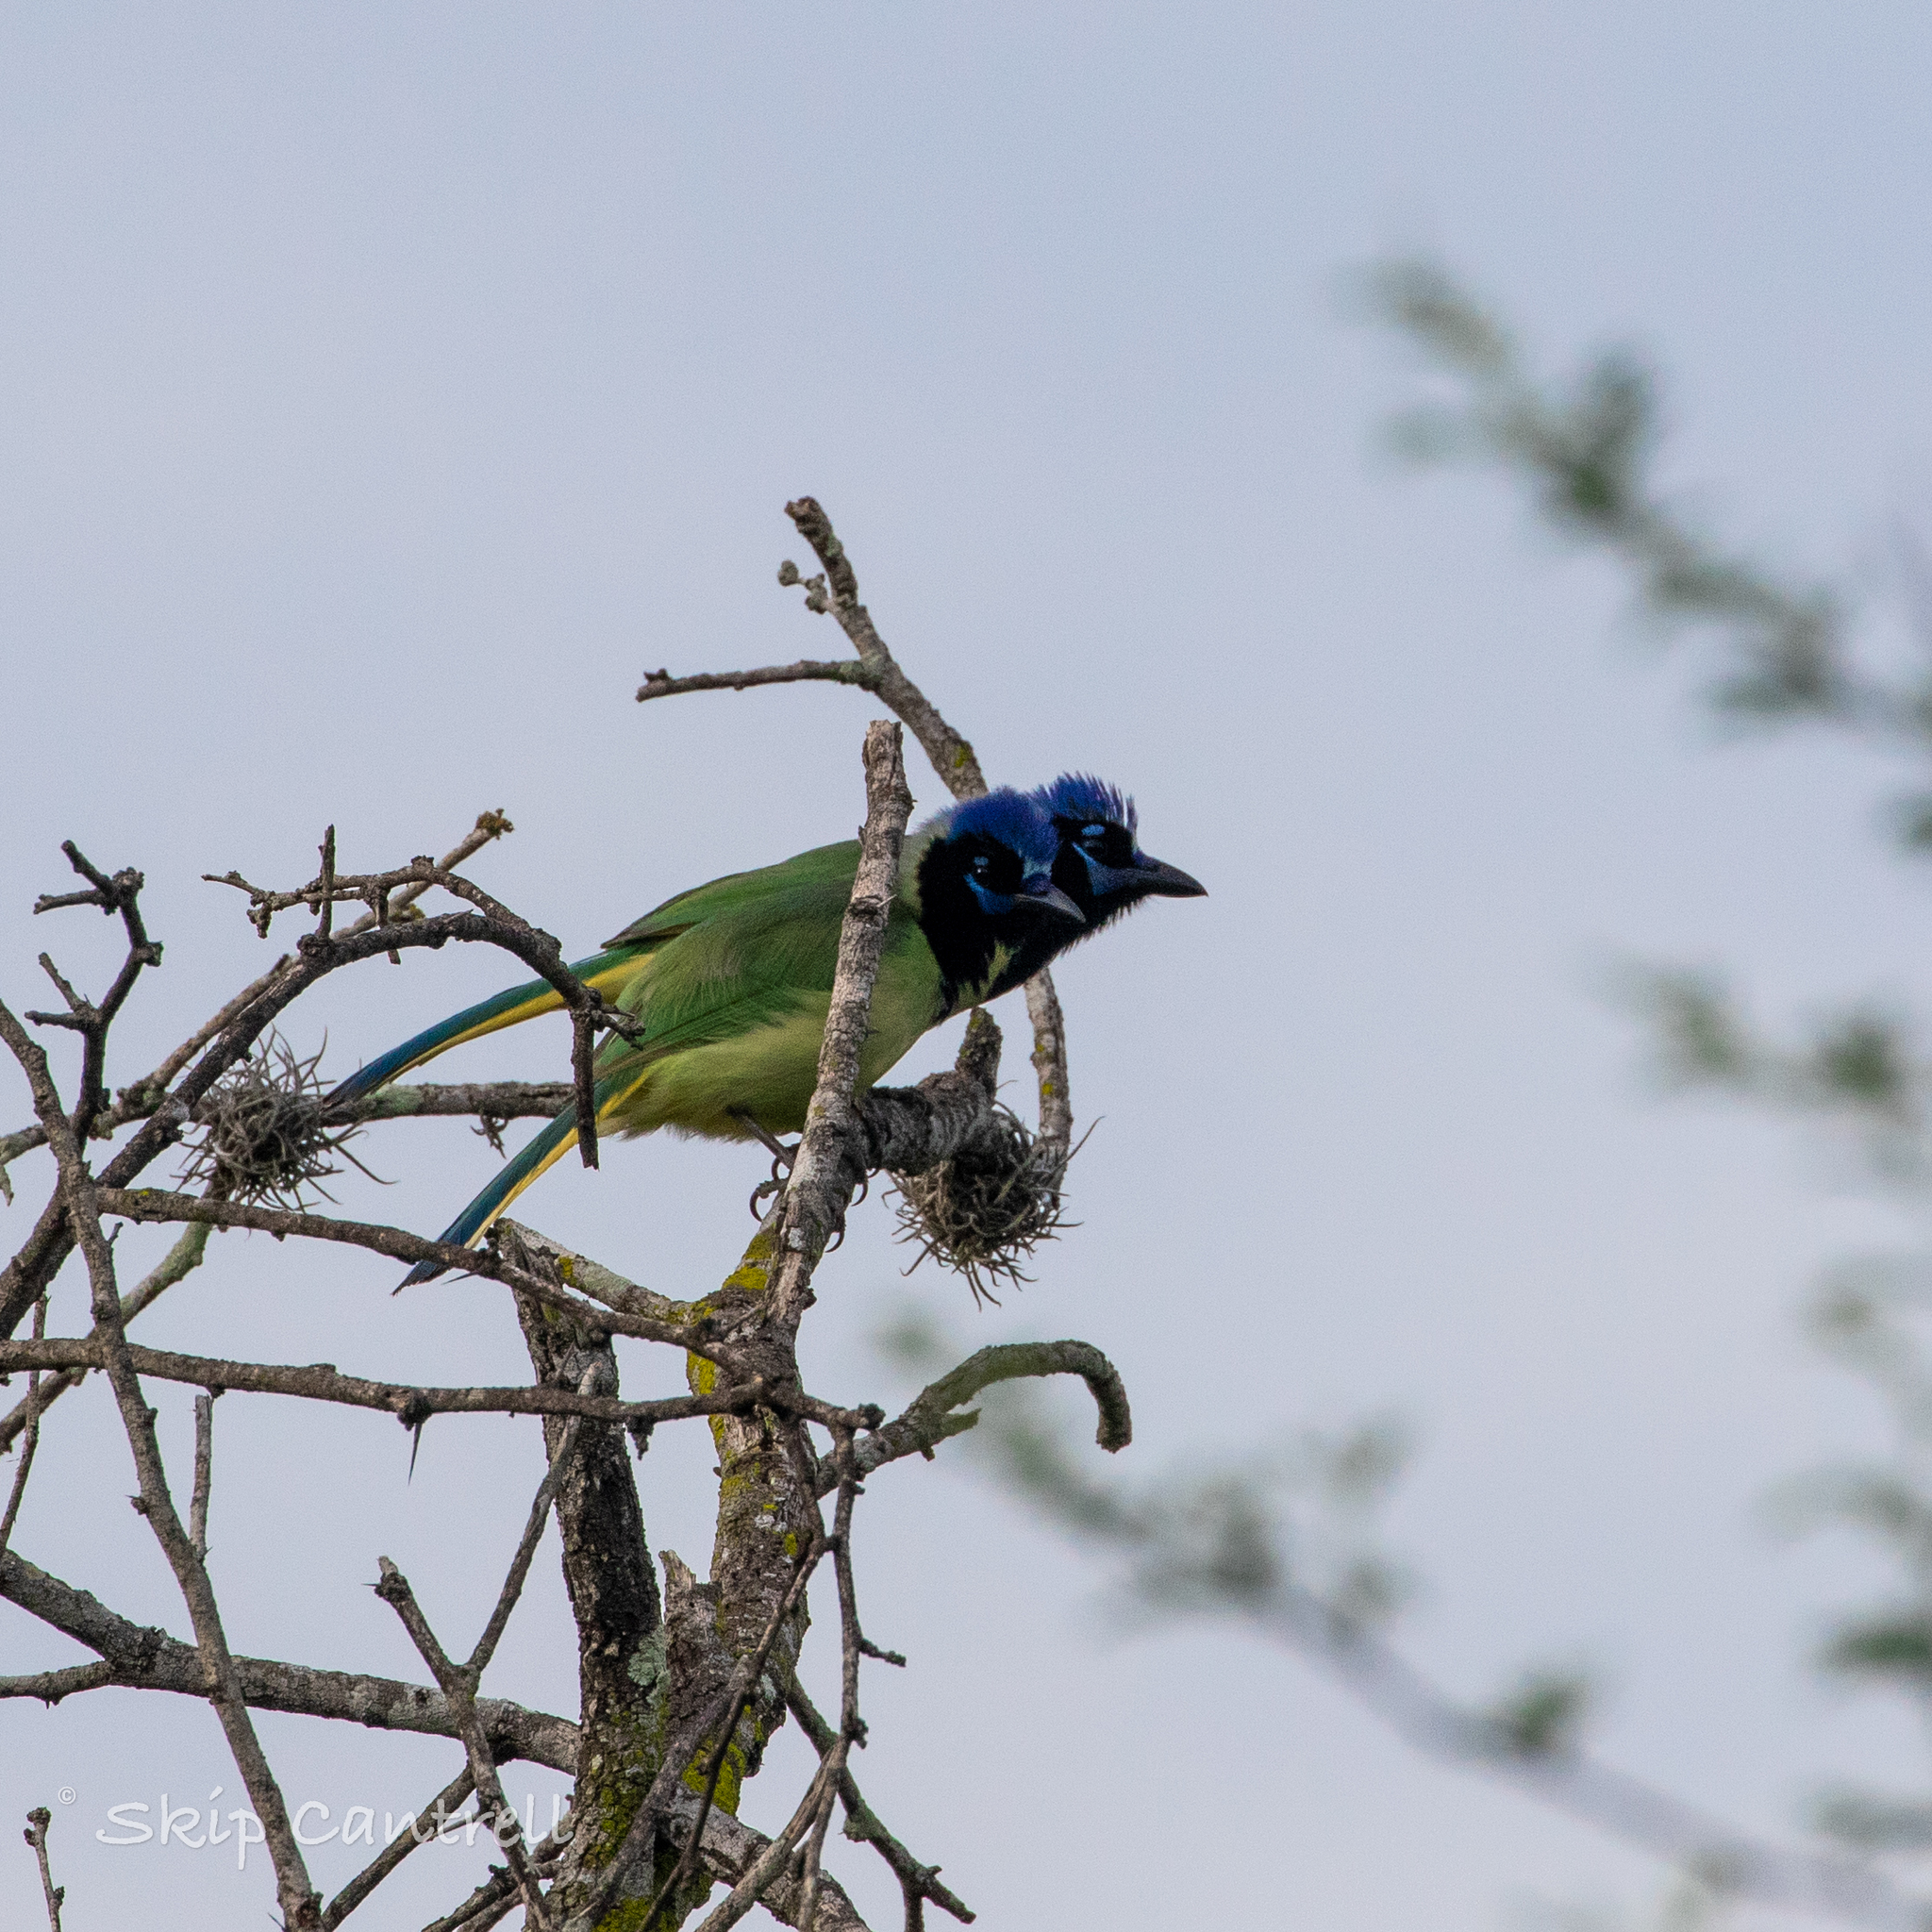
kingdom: Animalia
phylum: Chordata
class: Aves
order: Passeriformes
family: Corvidae
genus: Cyanocorax
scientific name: Cyanocorax yncas
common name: Green jay
